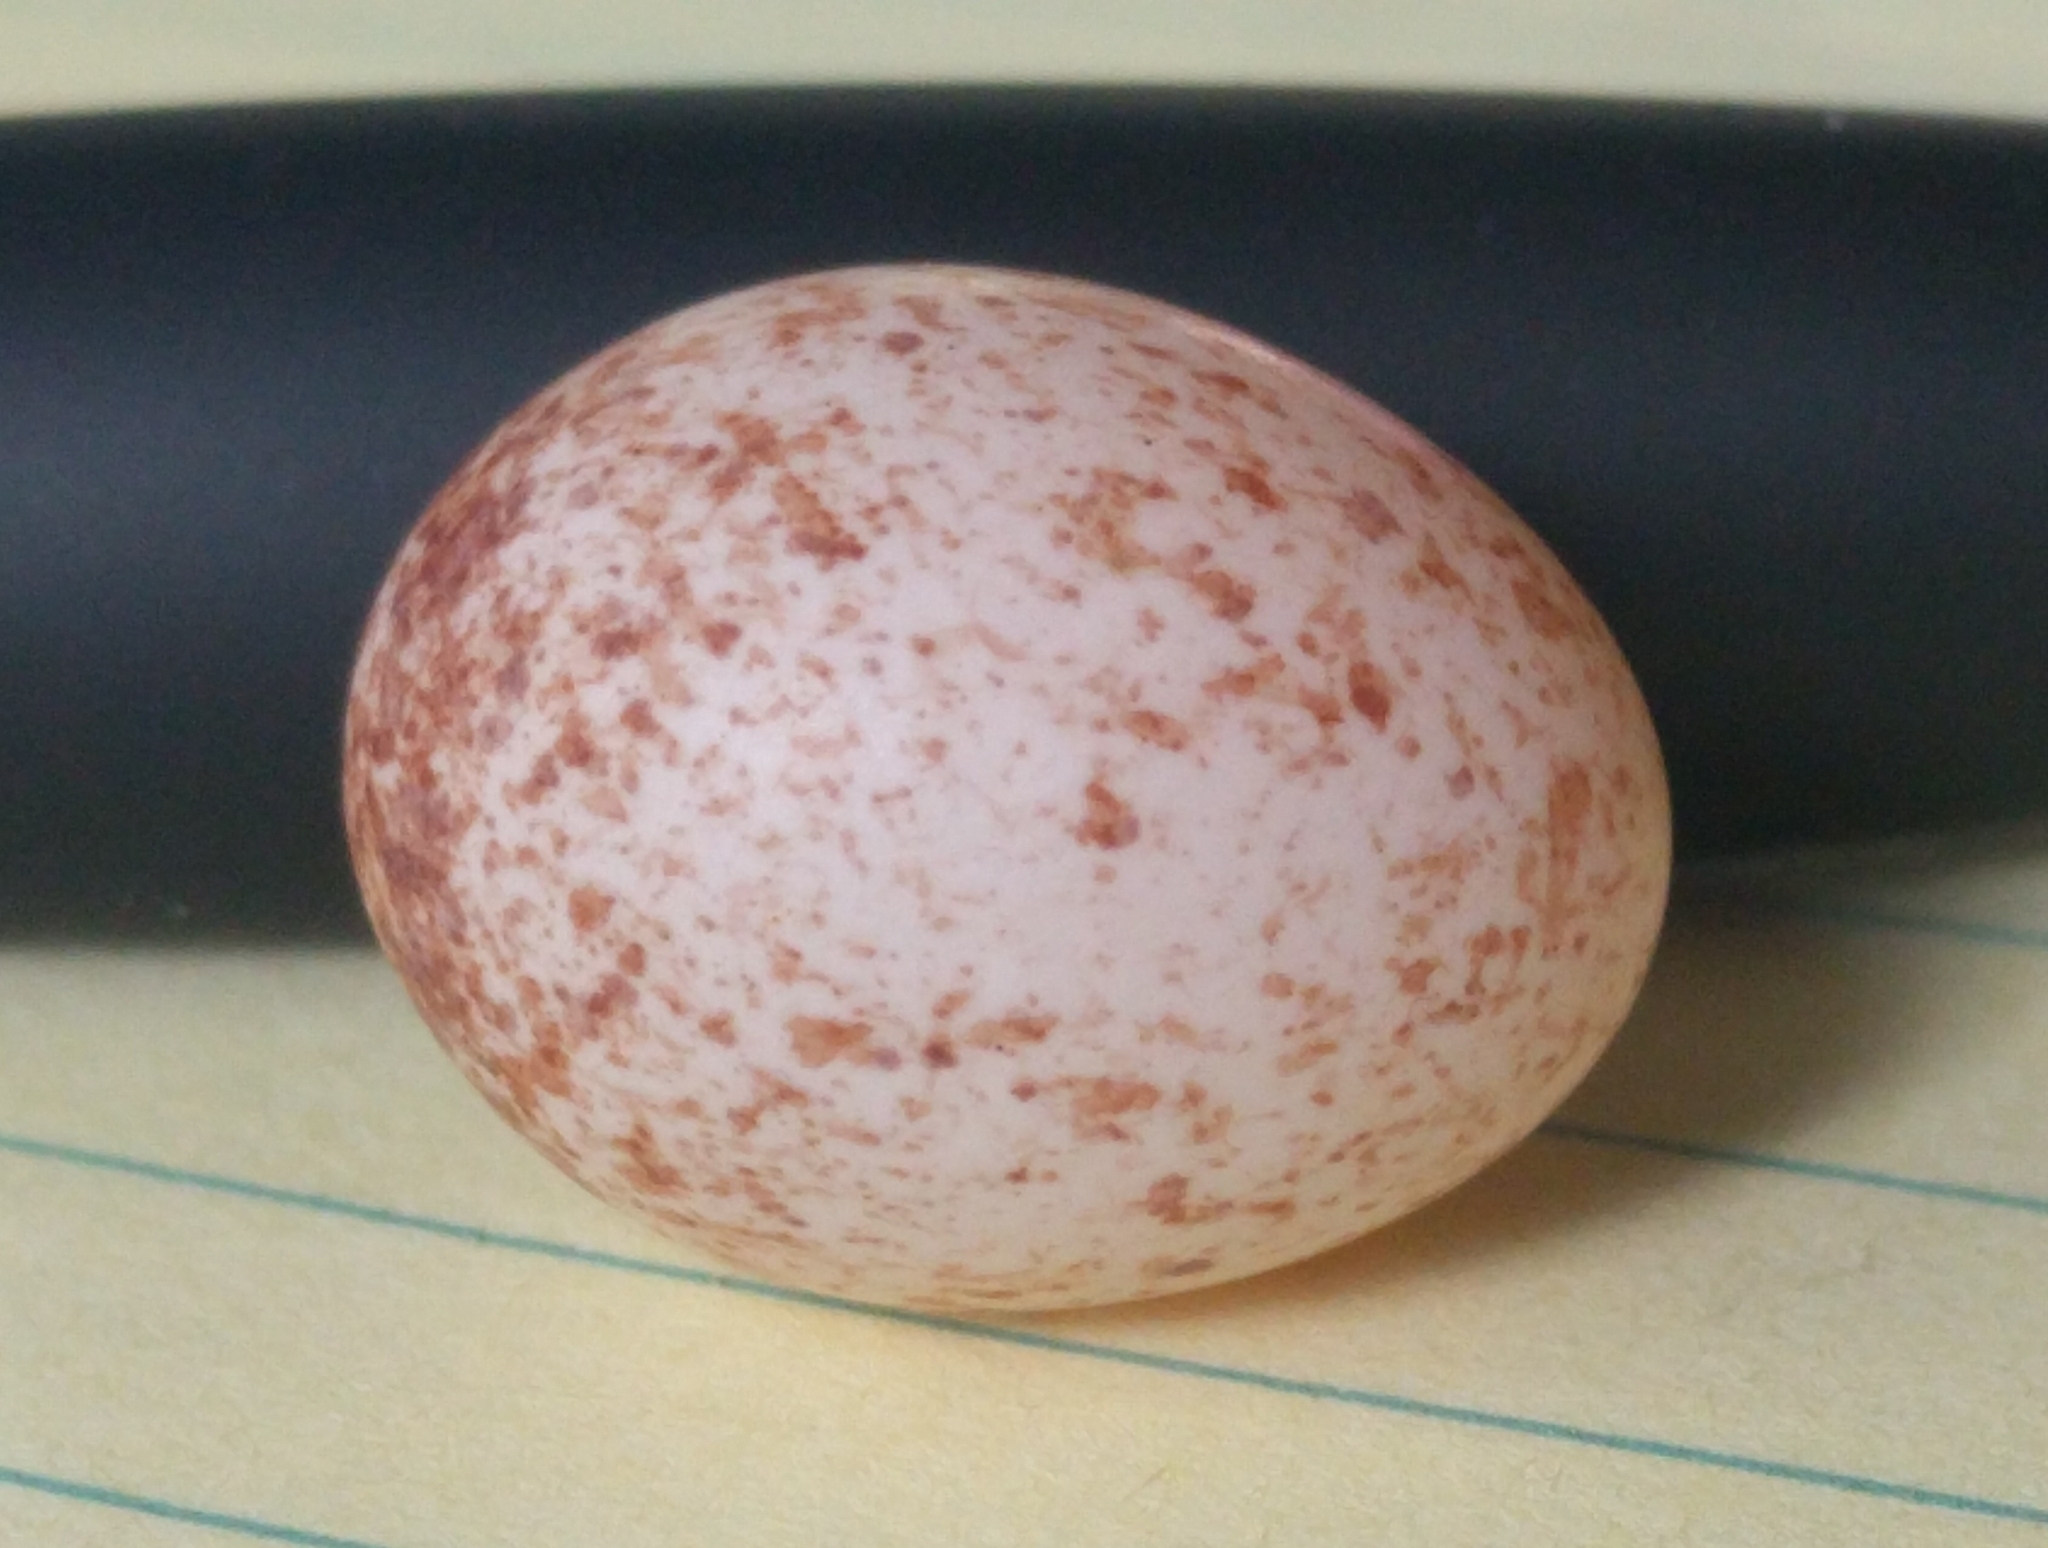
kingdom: Animalia
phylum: Chordata
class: Aves
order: Passeriformes
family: Troglodytidae
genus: Thryothorus
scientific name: Thryothorus ludovicianus
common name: Carolina wren
